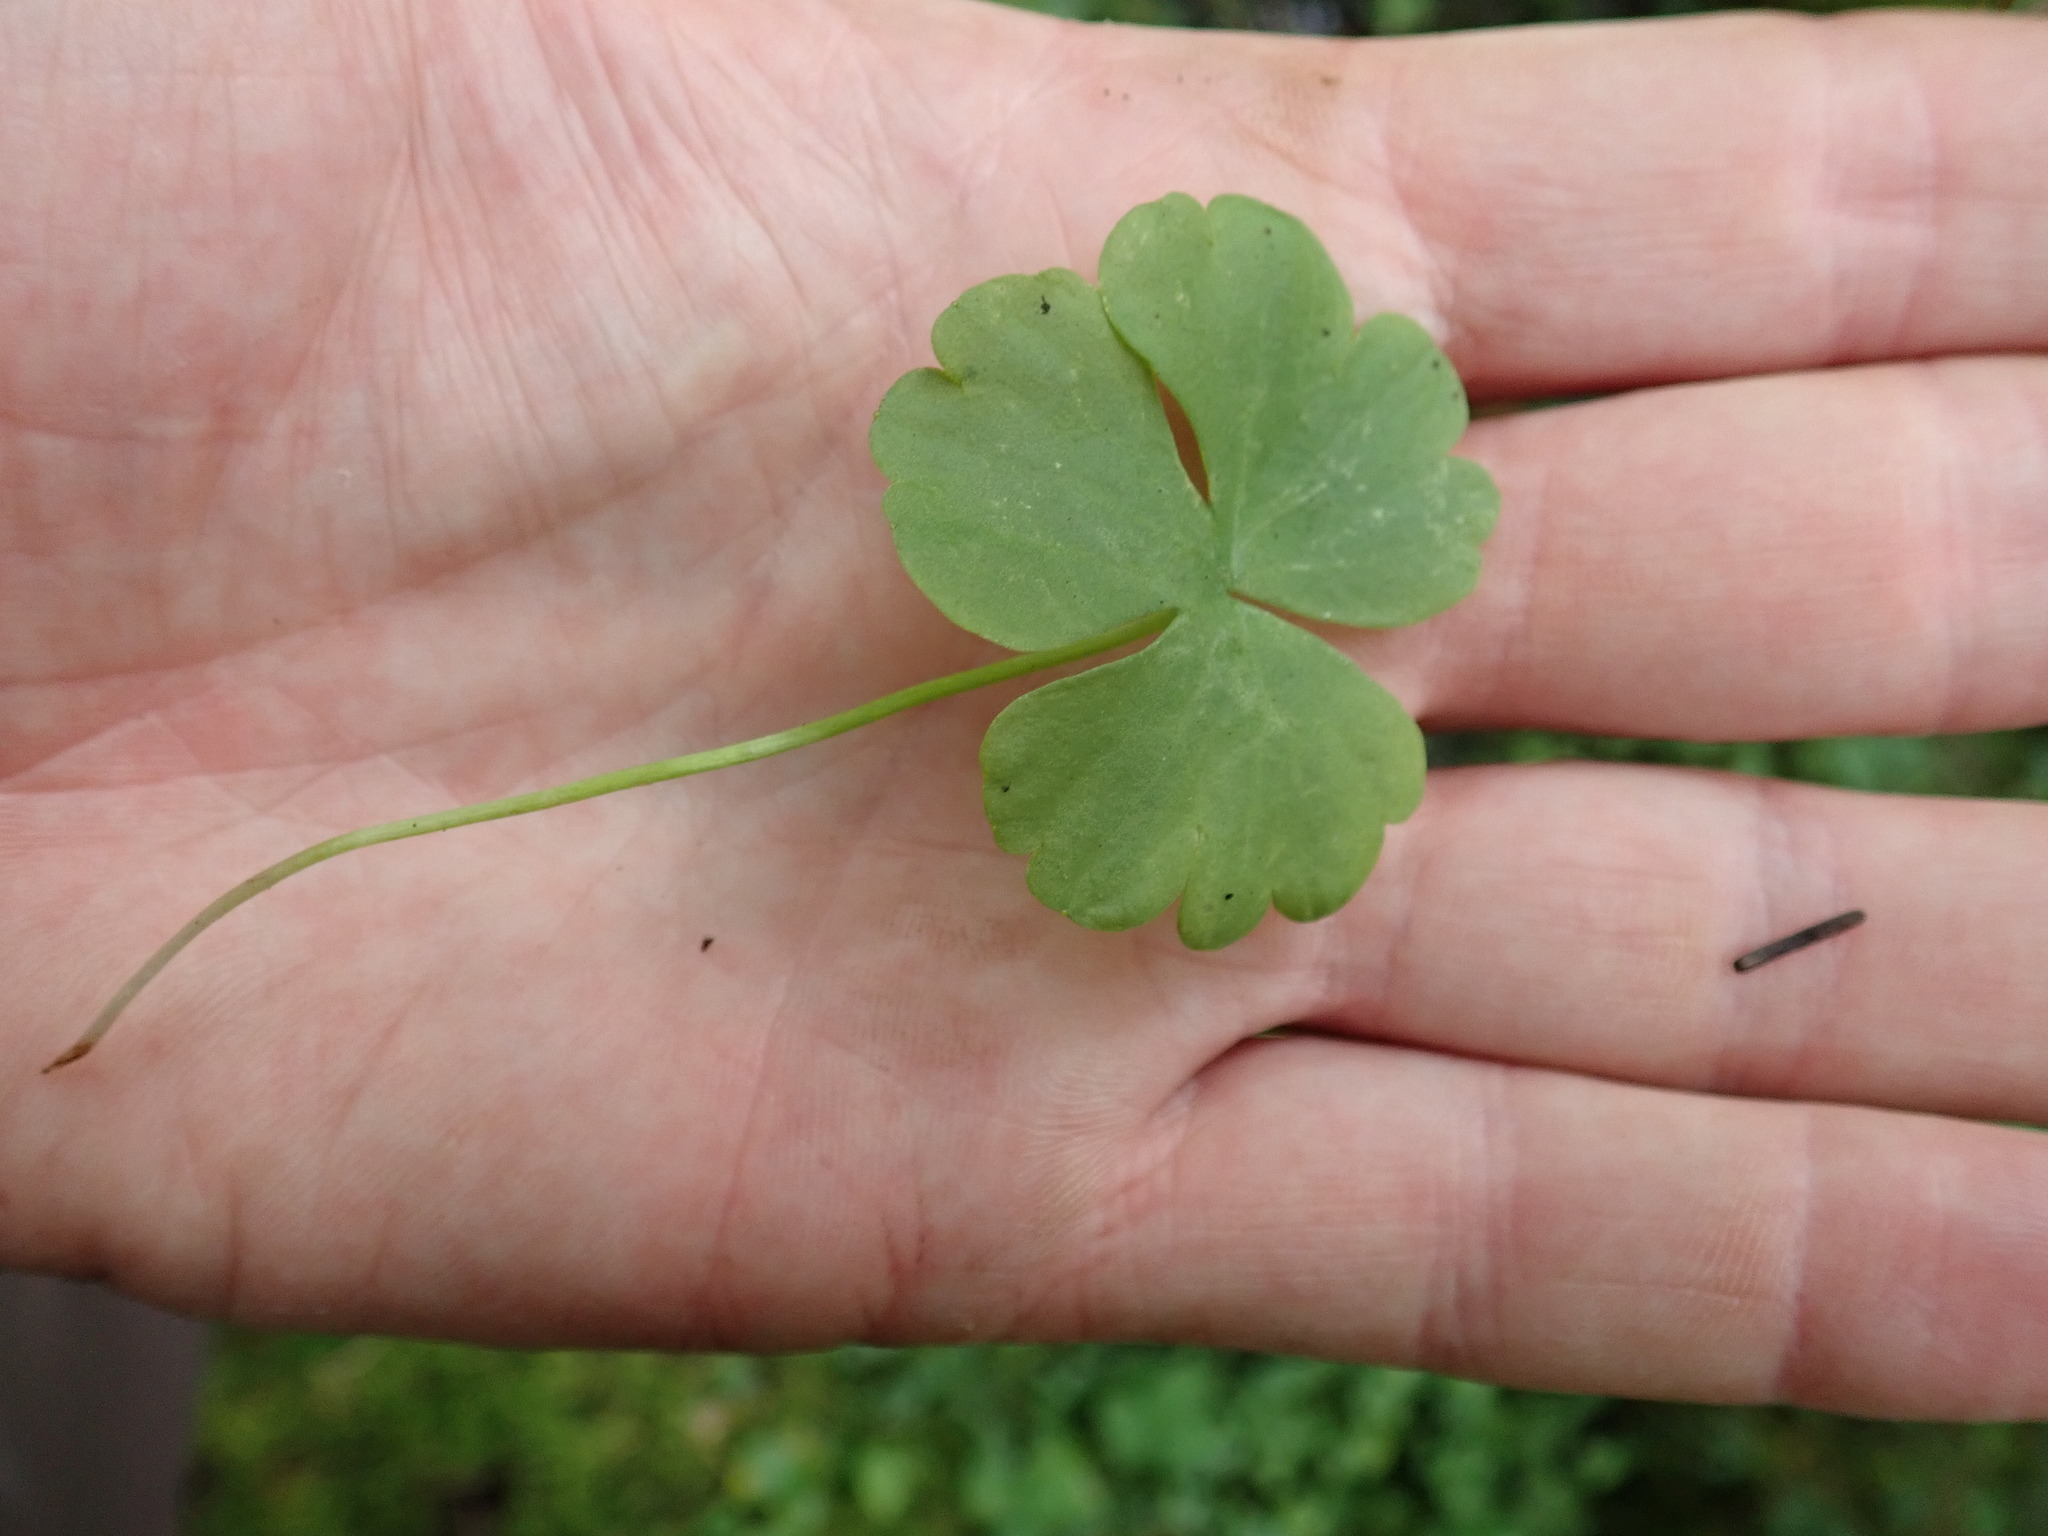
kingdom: Plantae
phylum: Tracheophyta
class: Magnoliopsida
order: Ranunculales
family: Ranunculaceae
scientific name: Ranunculaceae
